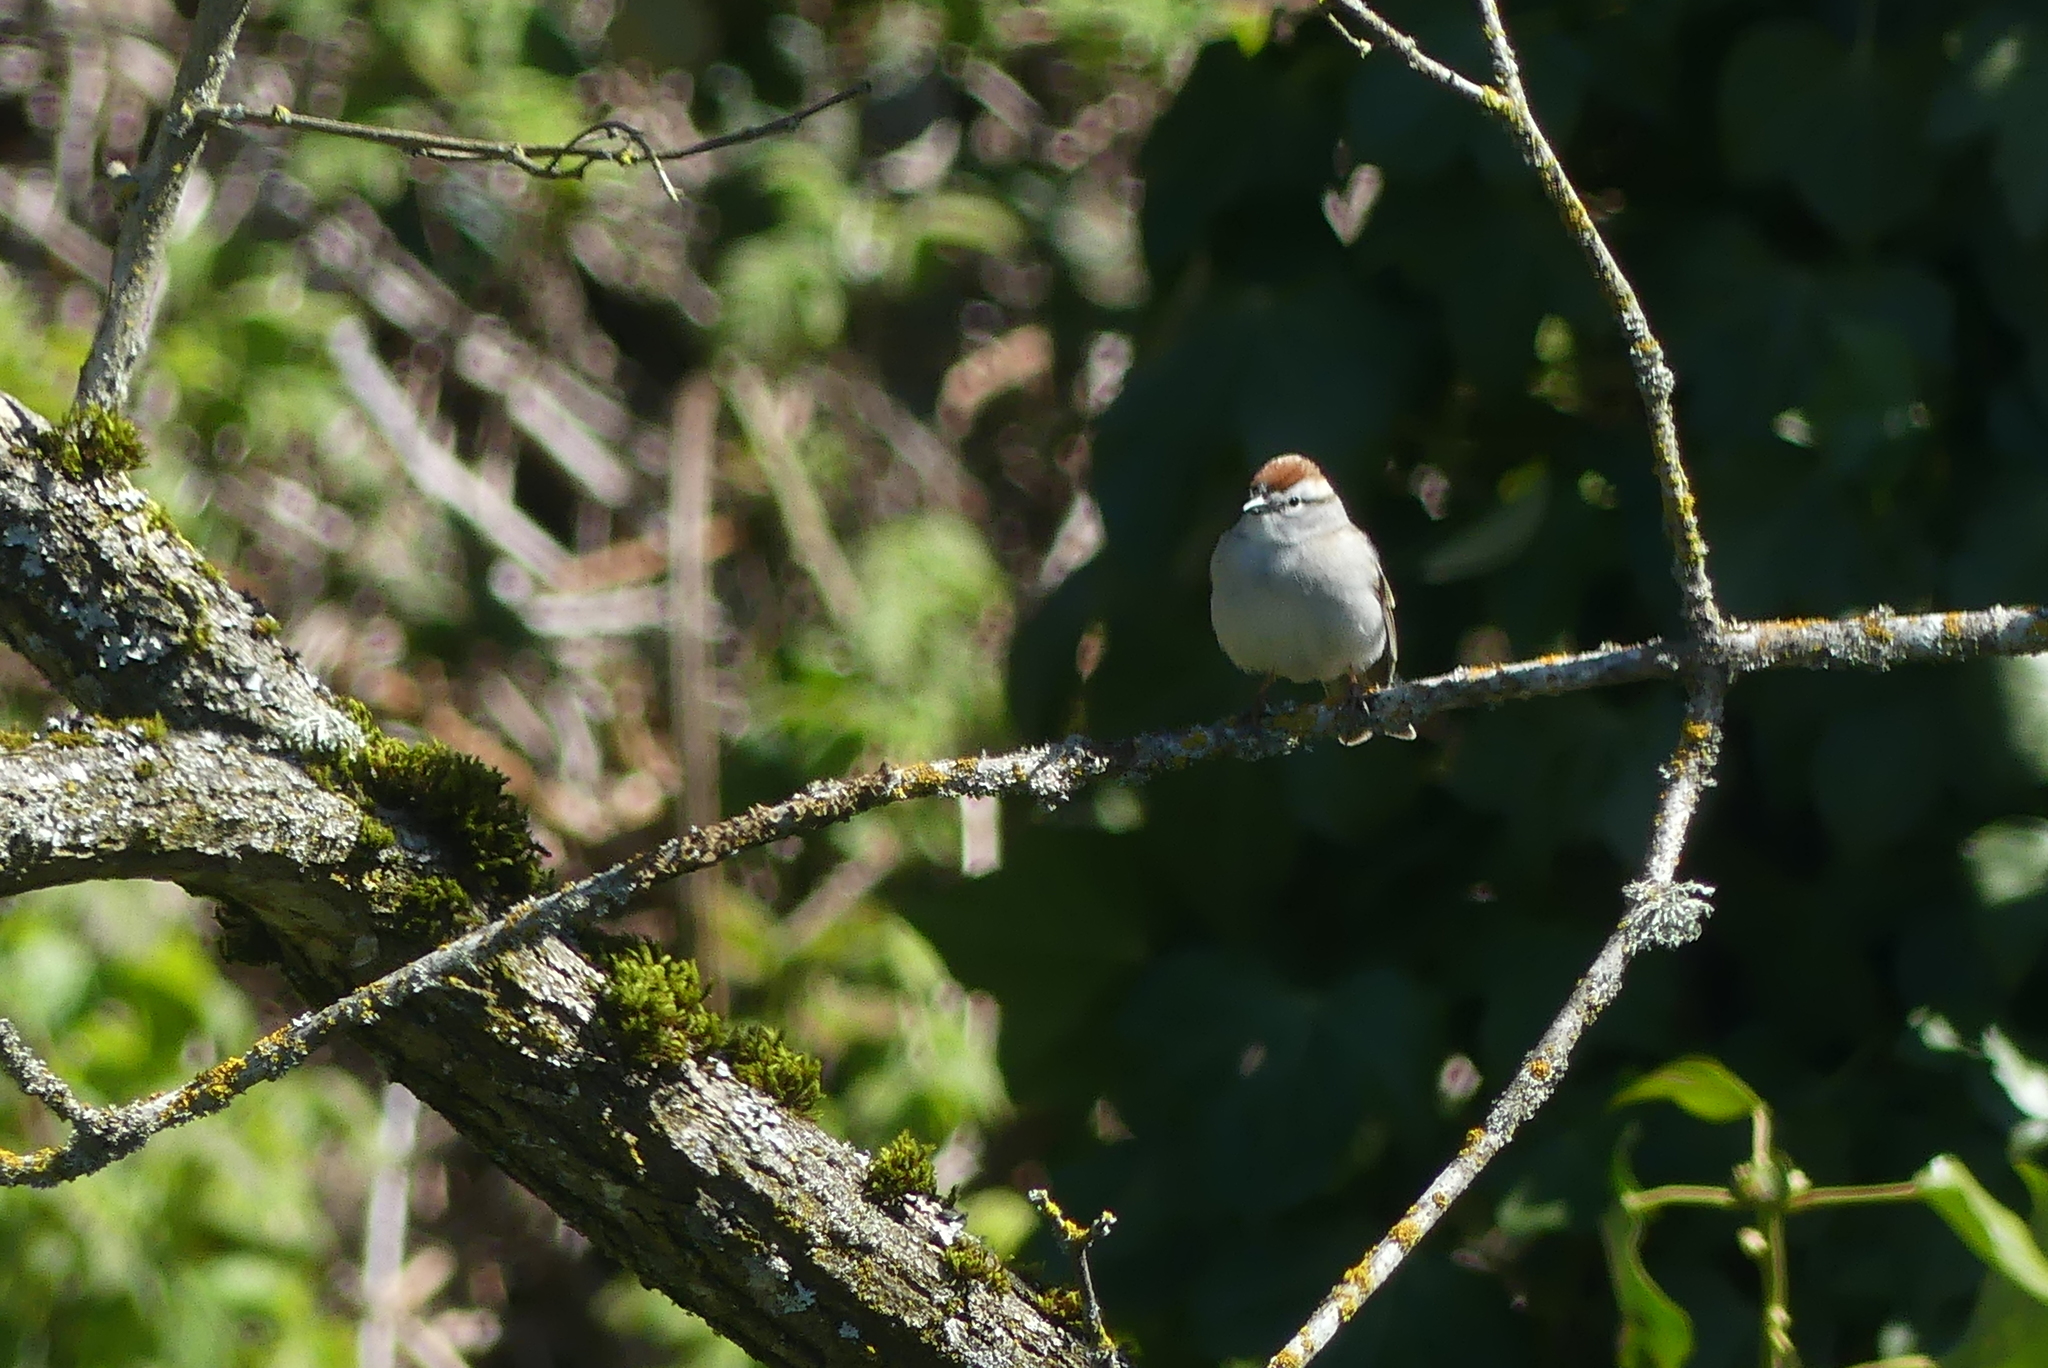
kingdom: Animalia
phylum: Chordata
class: Aves
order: Passeriformes
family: Passerellidae
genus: Spizella
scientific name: Spizella passerina
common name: Chipping sparrow
